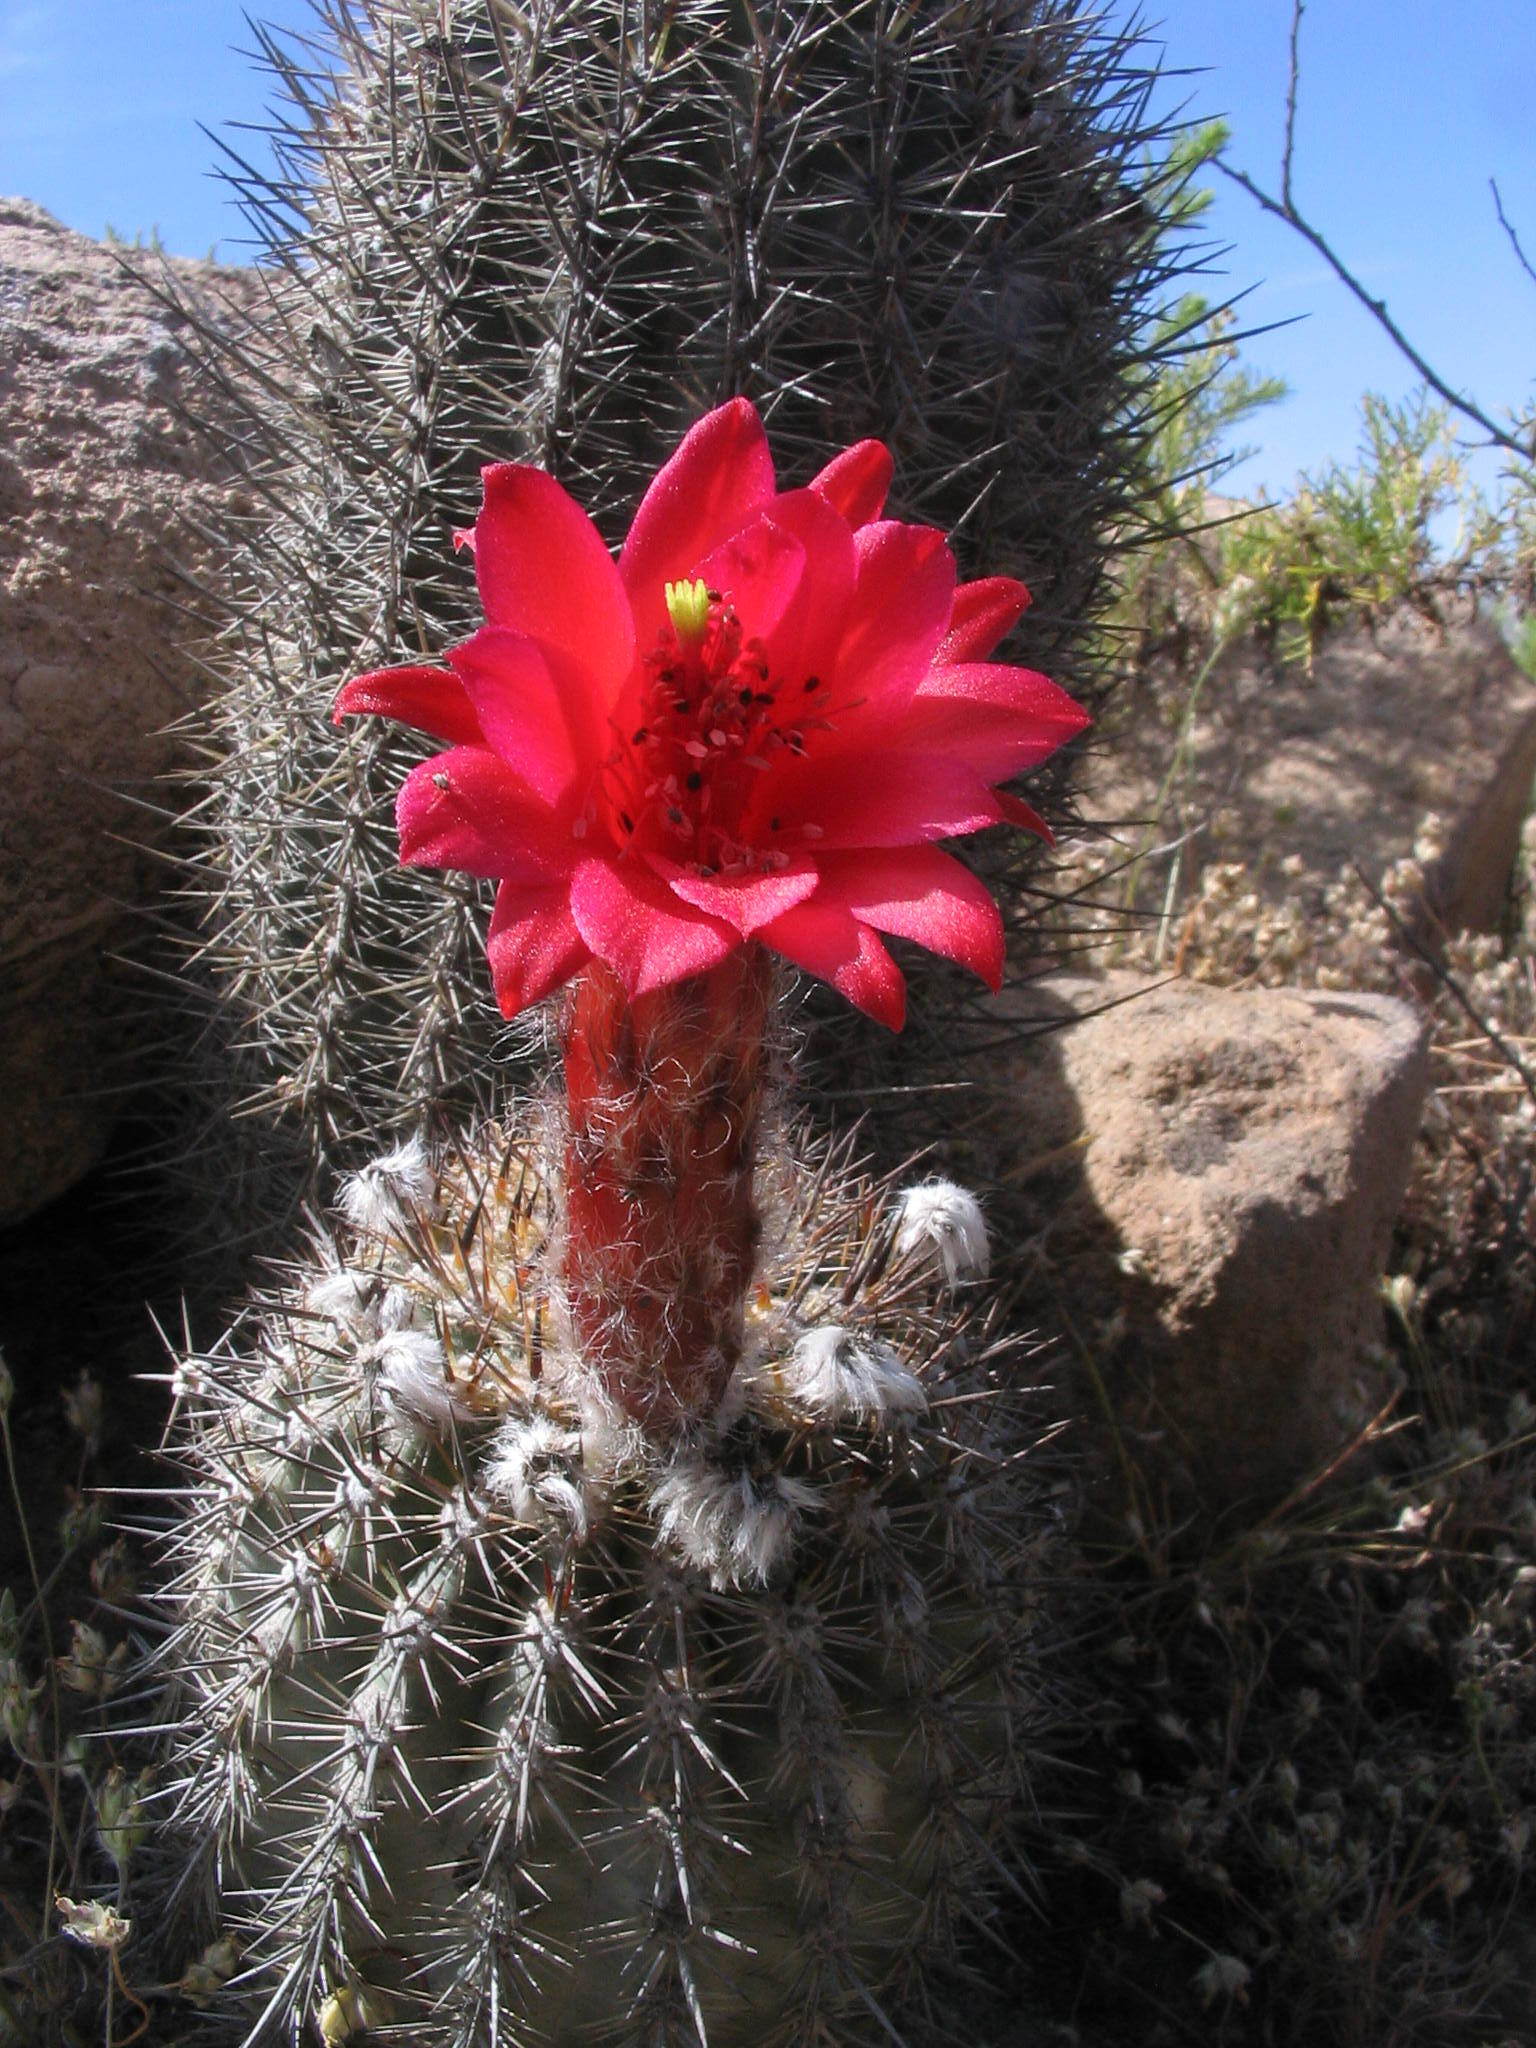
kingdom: Plantae
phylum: Tracheophyta
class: Magnoliopsida
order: Caryophyllales
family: Cactaceae
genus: Oreocereus
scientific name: Oreocereus hempelianus
